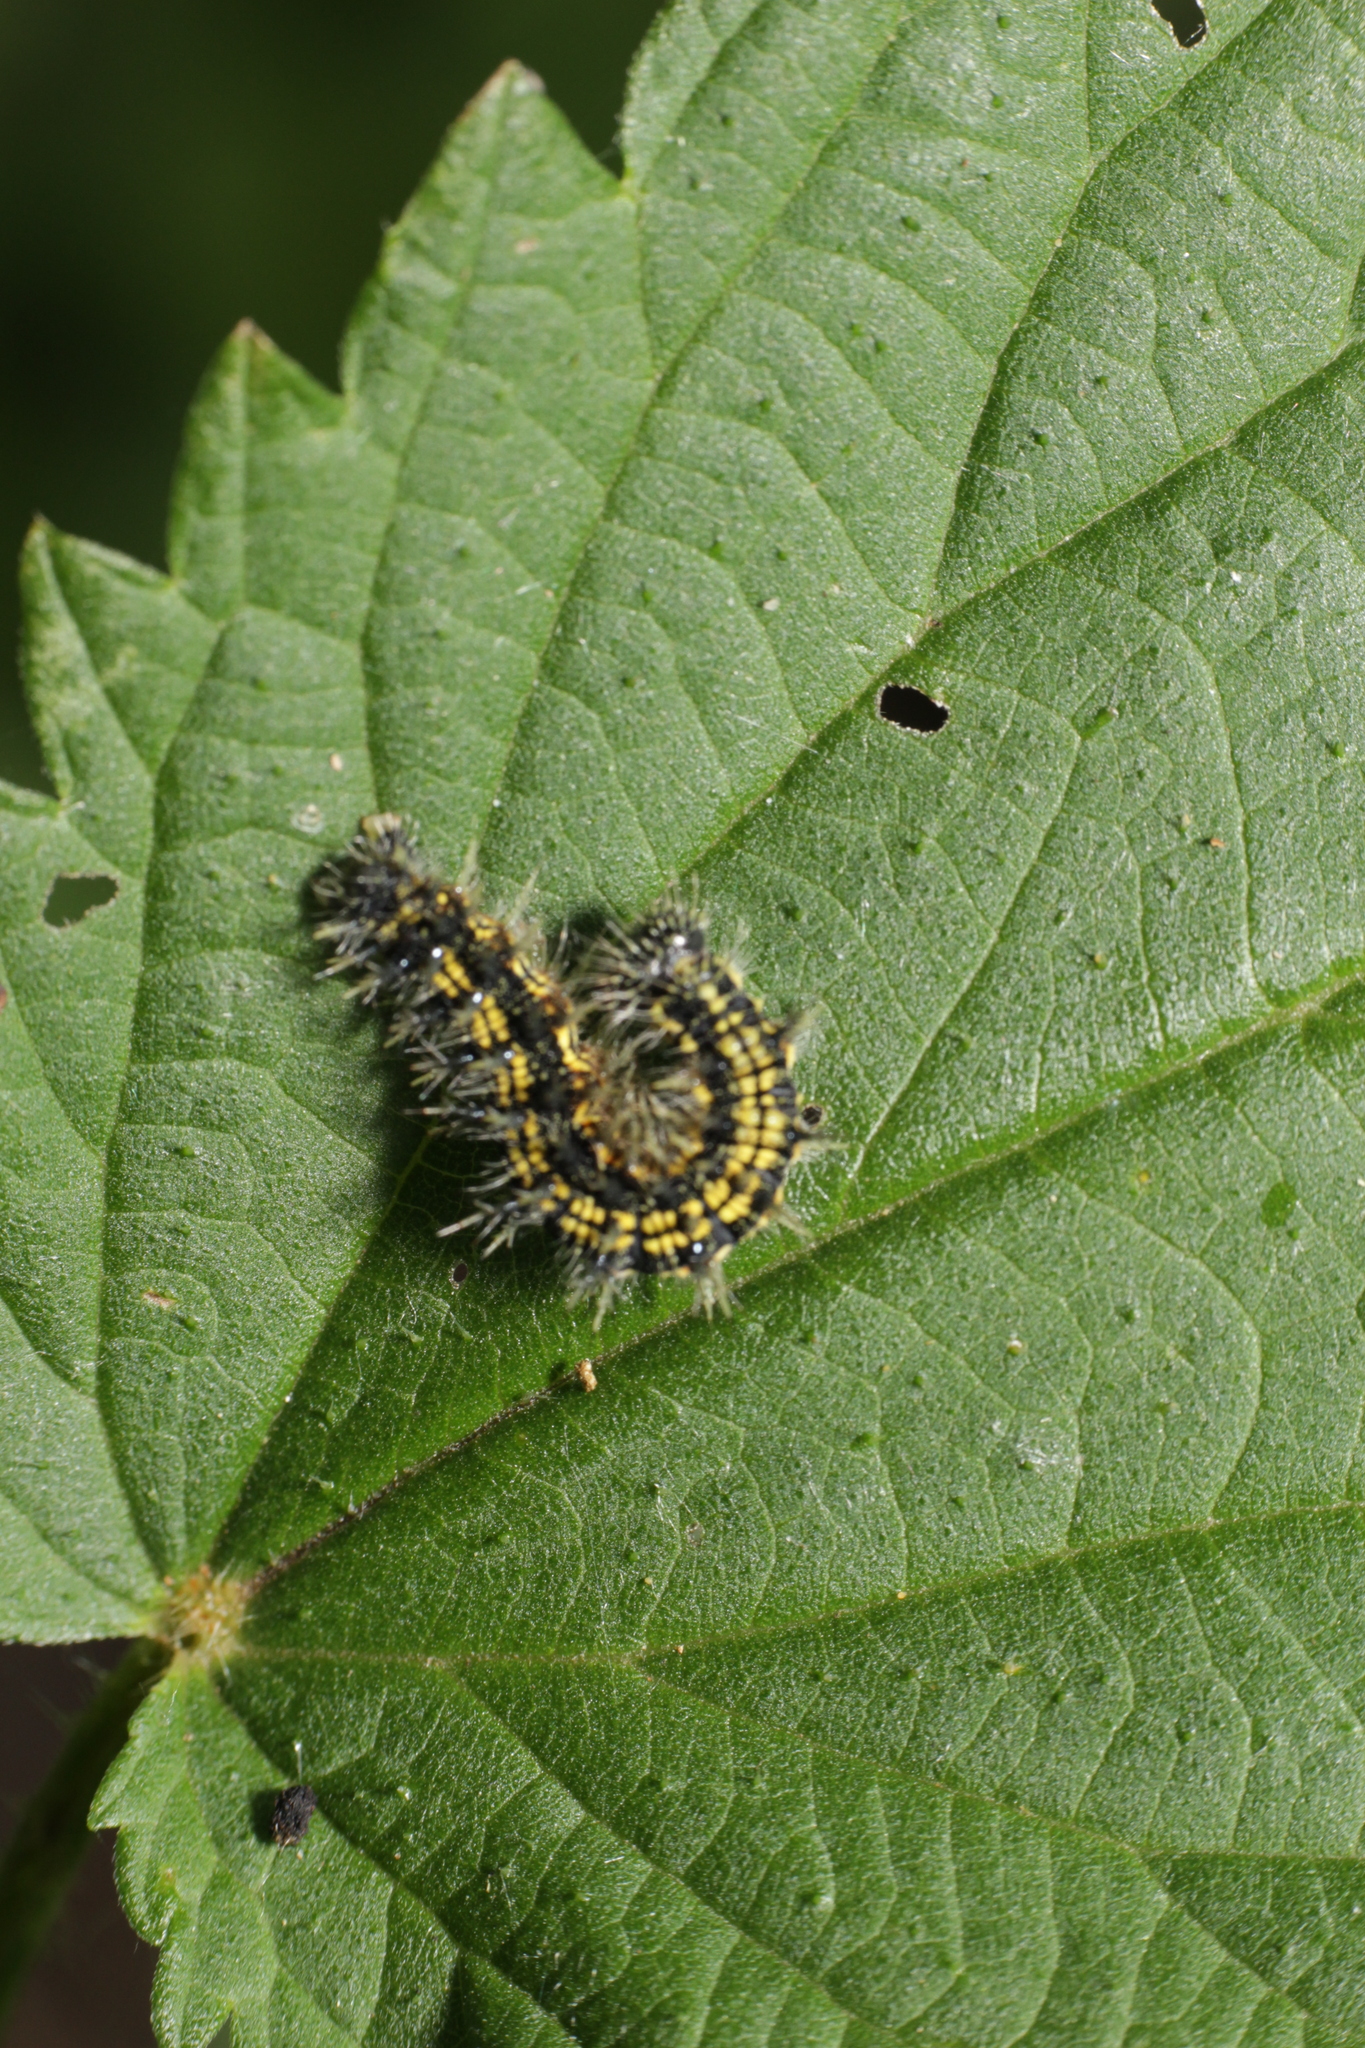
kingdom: Animalia
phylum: Arthropoda
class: Insecta
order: Lepidoptera
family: Nymphalidae
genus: Aglais
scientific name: Aglais urticae
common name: Small tortoiseshell
